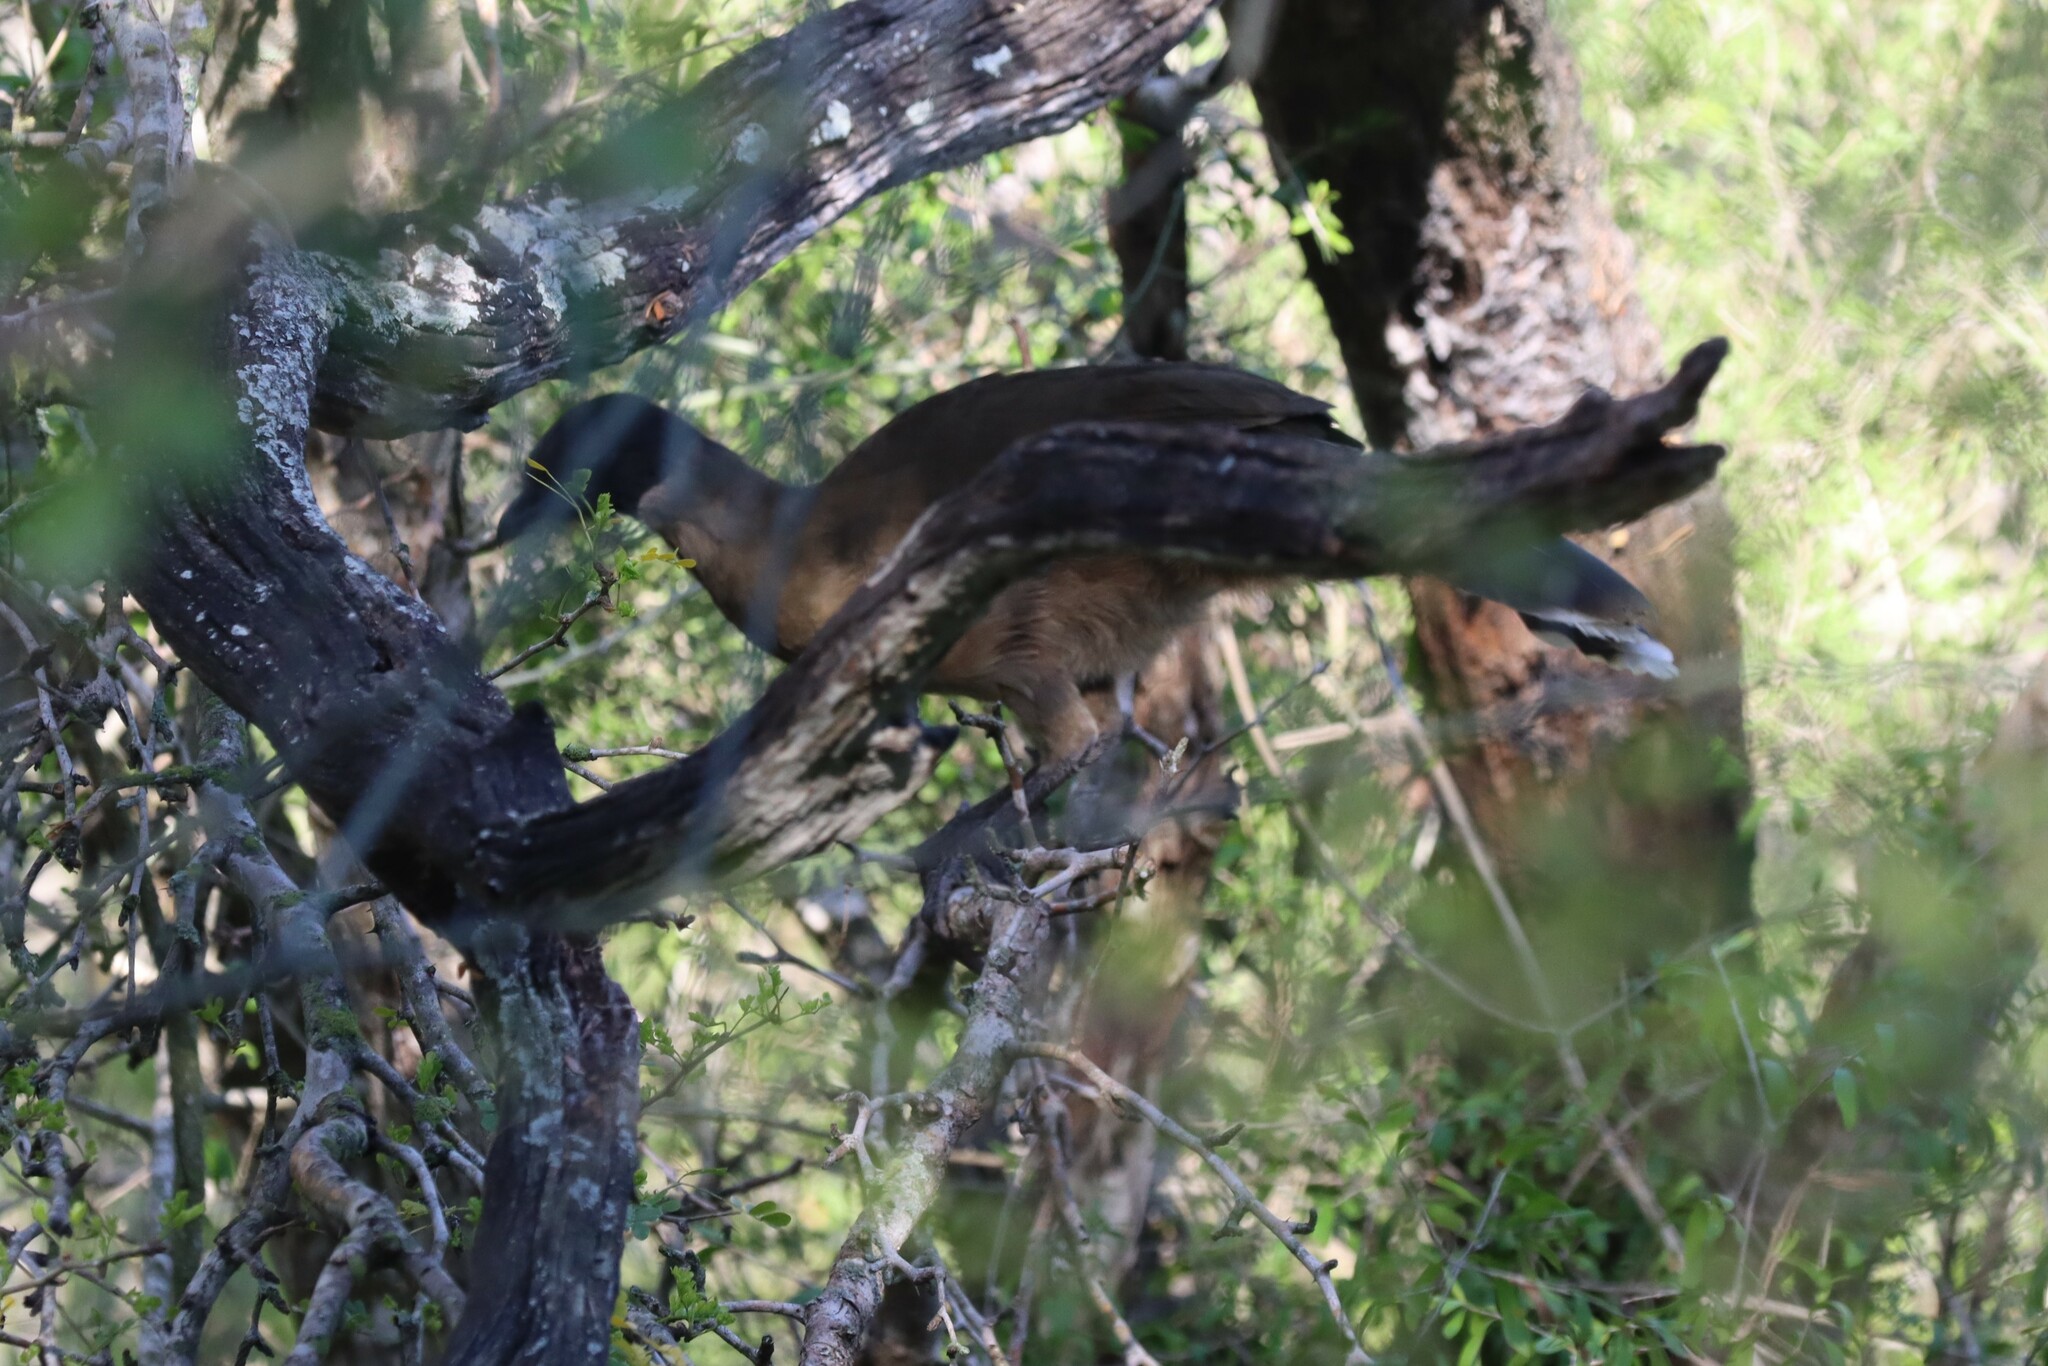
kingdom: Animalia
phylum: Chordata
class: Aves
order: Galliformes
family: Cracidae
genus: Ortalis
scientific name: Ortalis vetula
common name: Plain chachalaca
